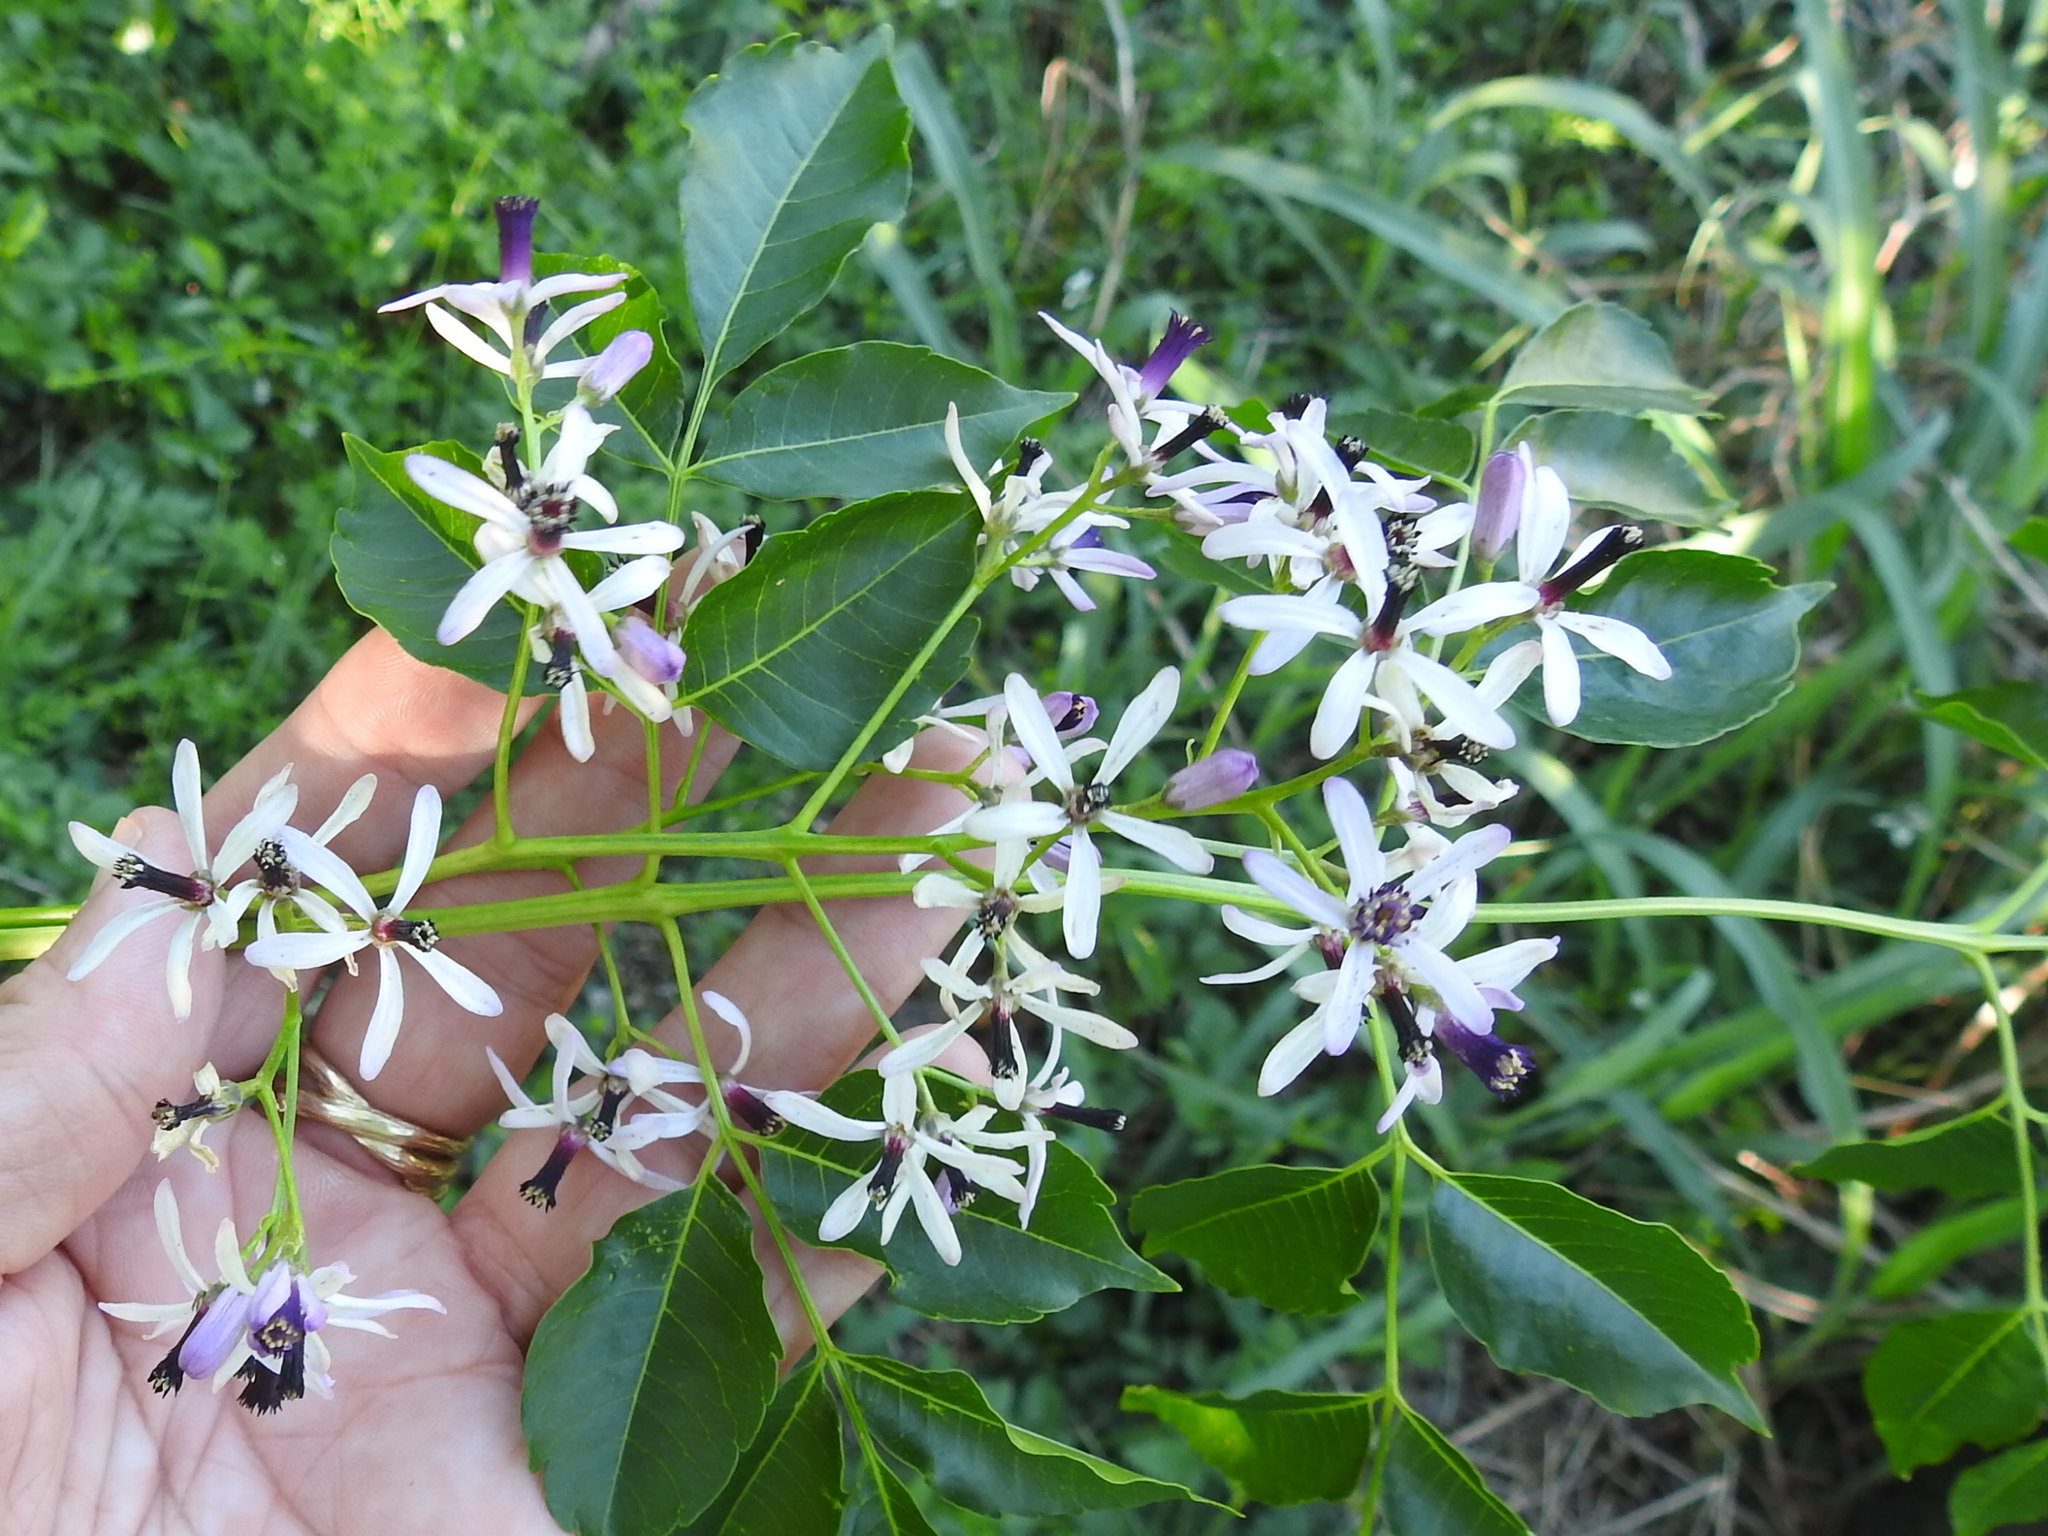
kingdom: Plantae
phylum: Tracheophyta
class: Magnoliopsida
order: Sapindales
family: Meliaceae
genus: Melia
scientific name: Melia azedarach
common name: Chinaberrytree
